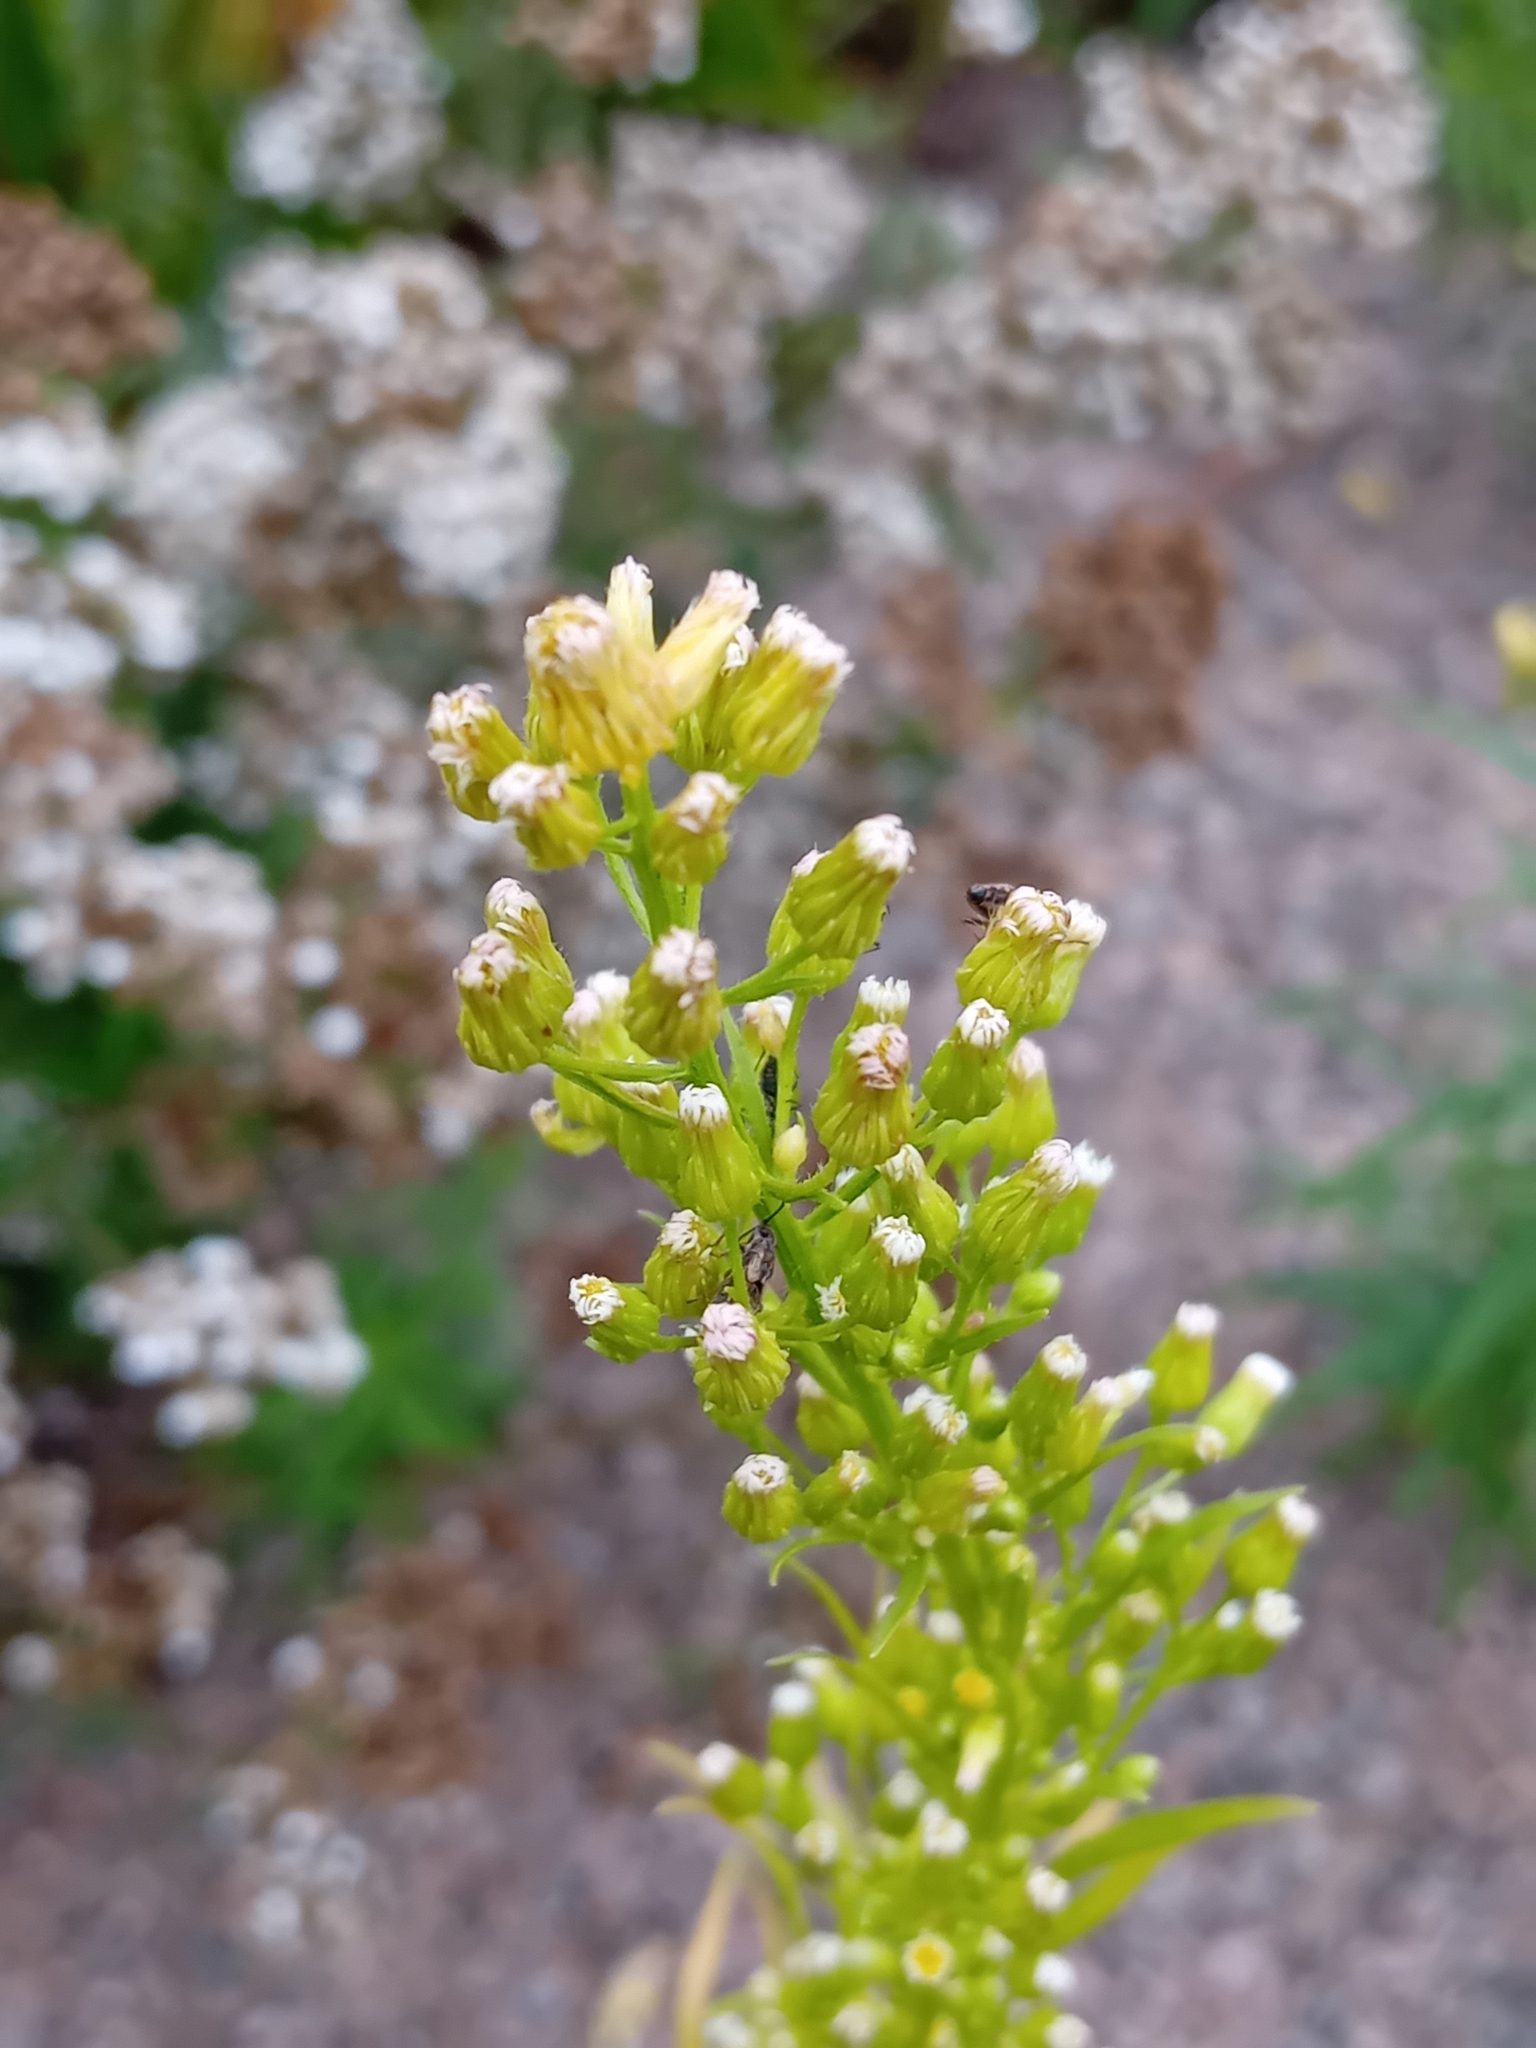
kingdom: Plantae
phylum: Tracheophyta
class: Magnoliopsida
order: Asterales
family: Asteraceae
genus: Erigeron
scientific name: Erigeron canadensis
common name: Canadian fleabane
